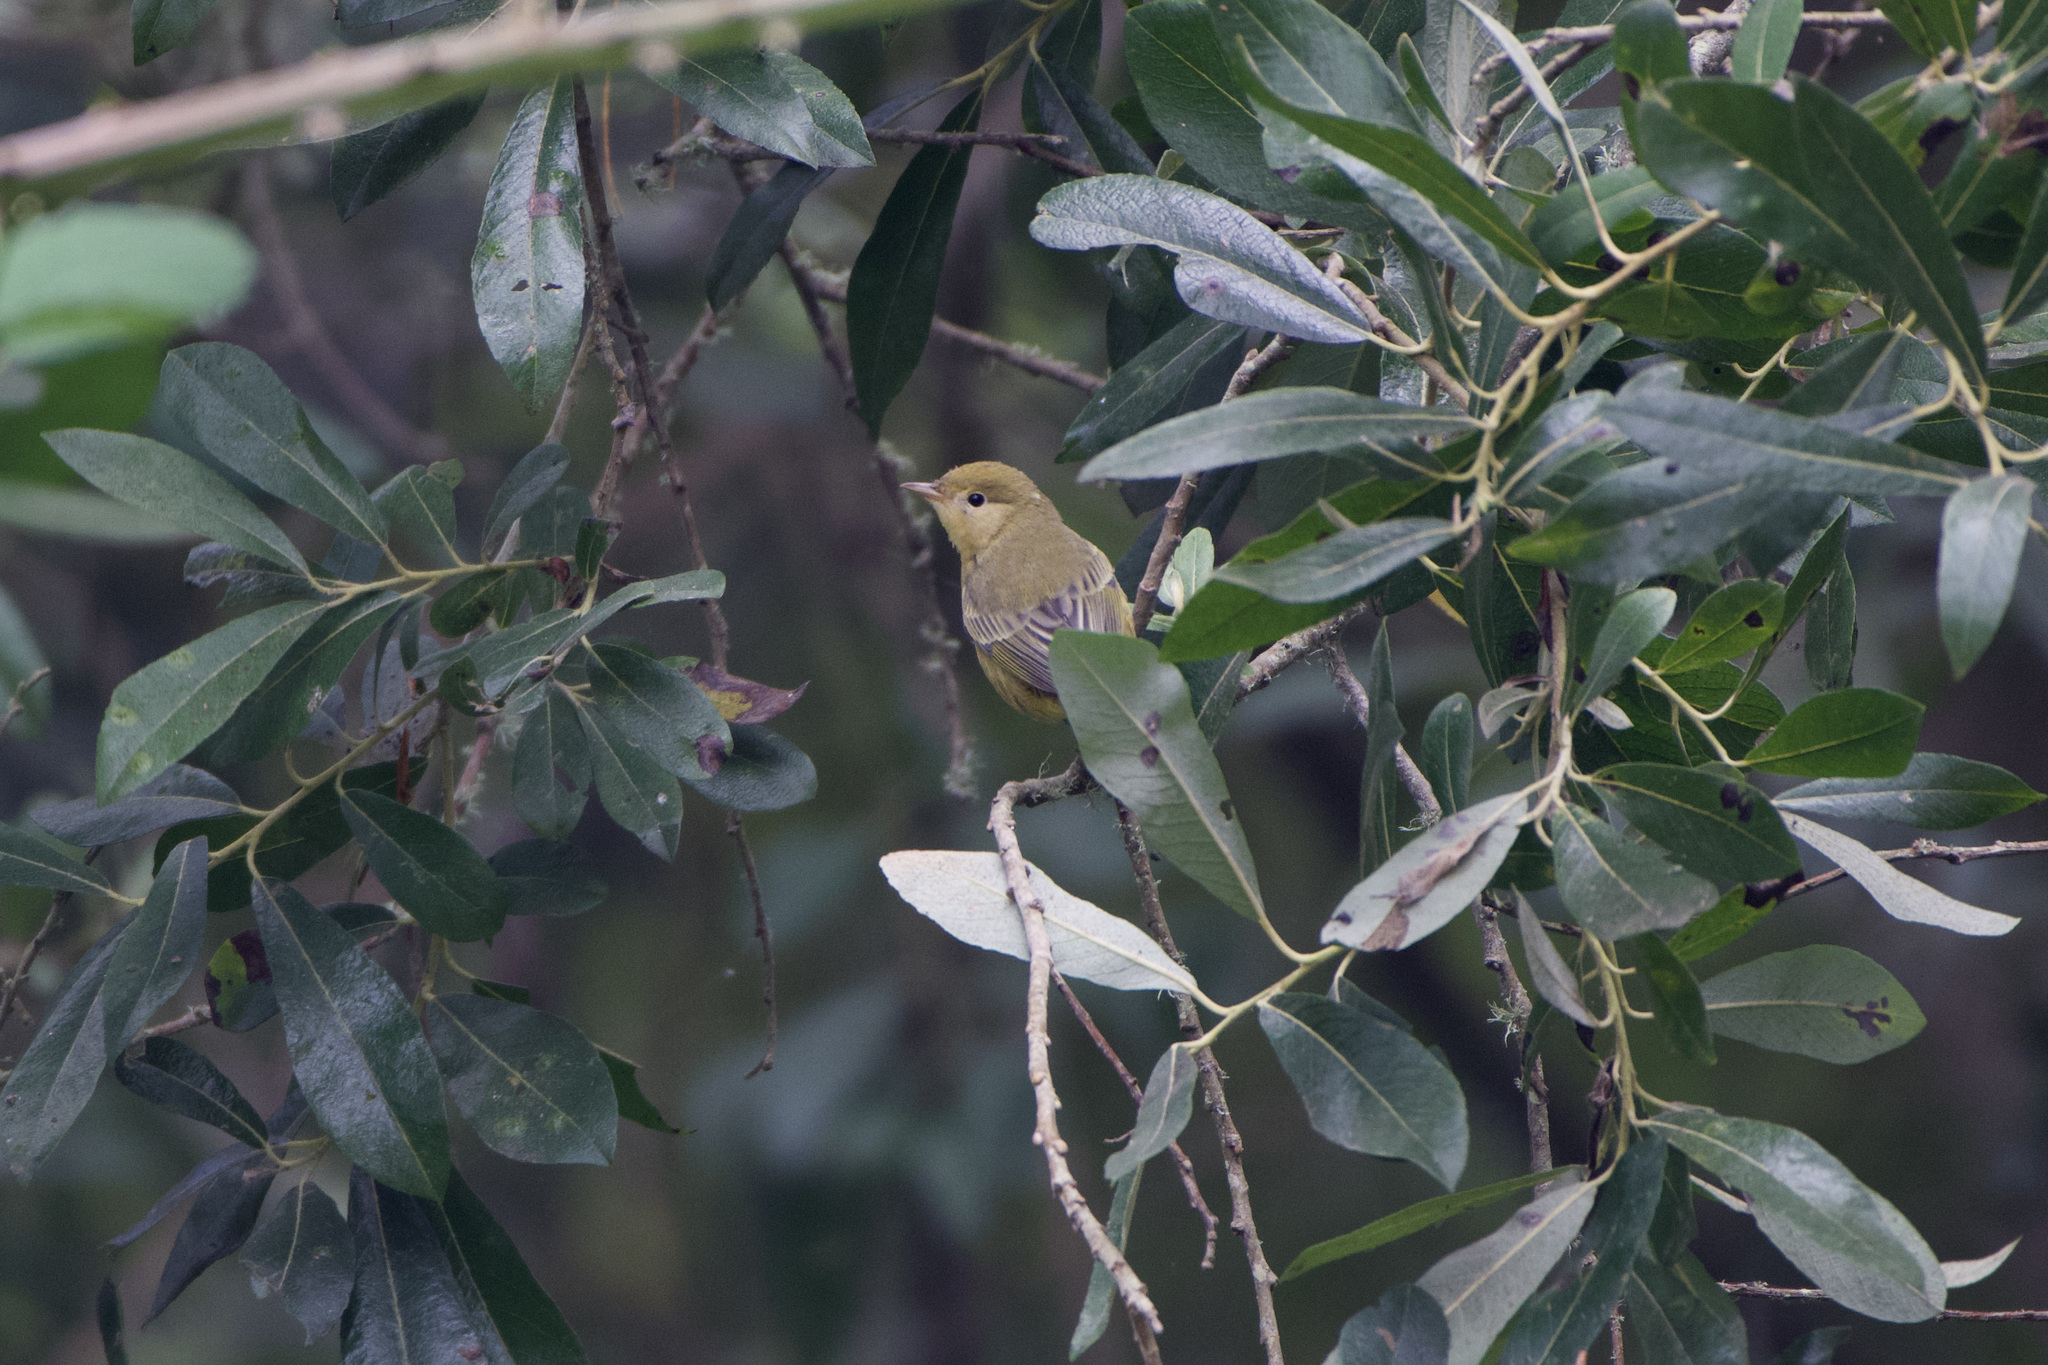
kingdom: Animalia
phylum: Chordata
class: Aves
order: Passeriformes
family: Parulidae
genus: Setophaga
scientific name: Setophaga petechia
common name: Yellow warbler
